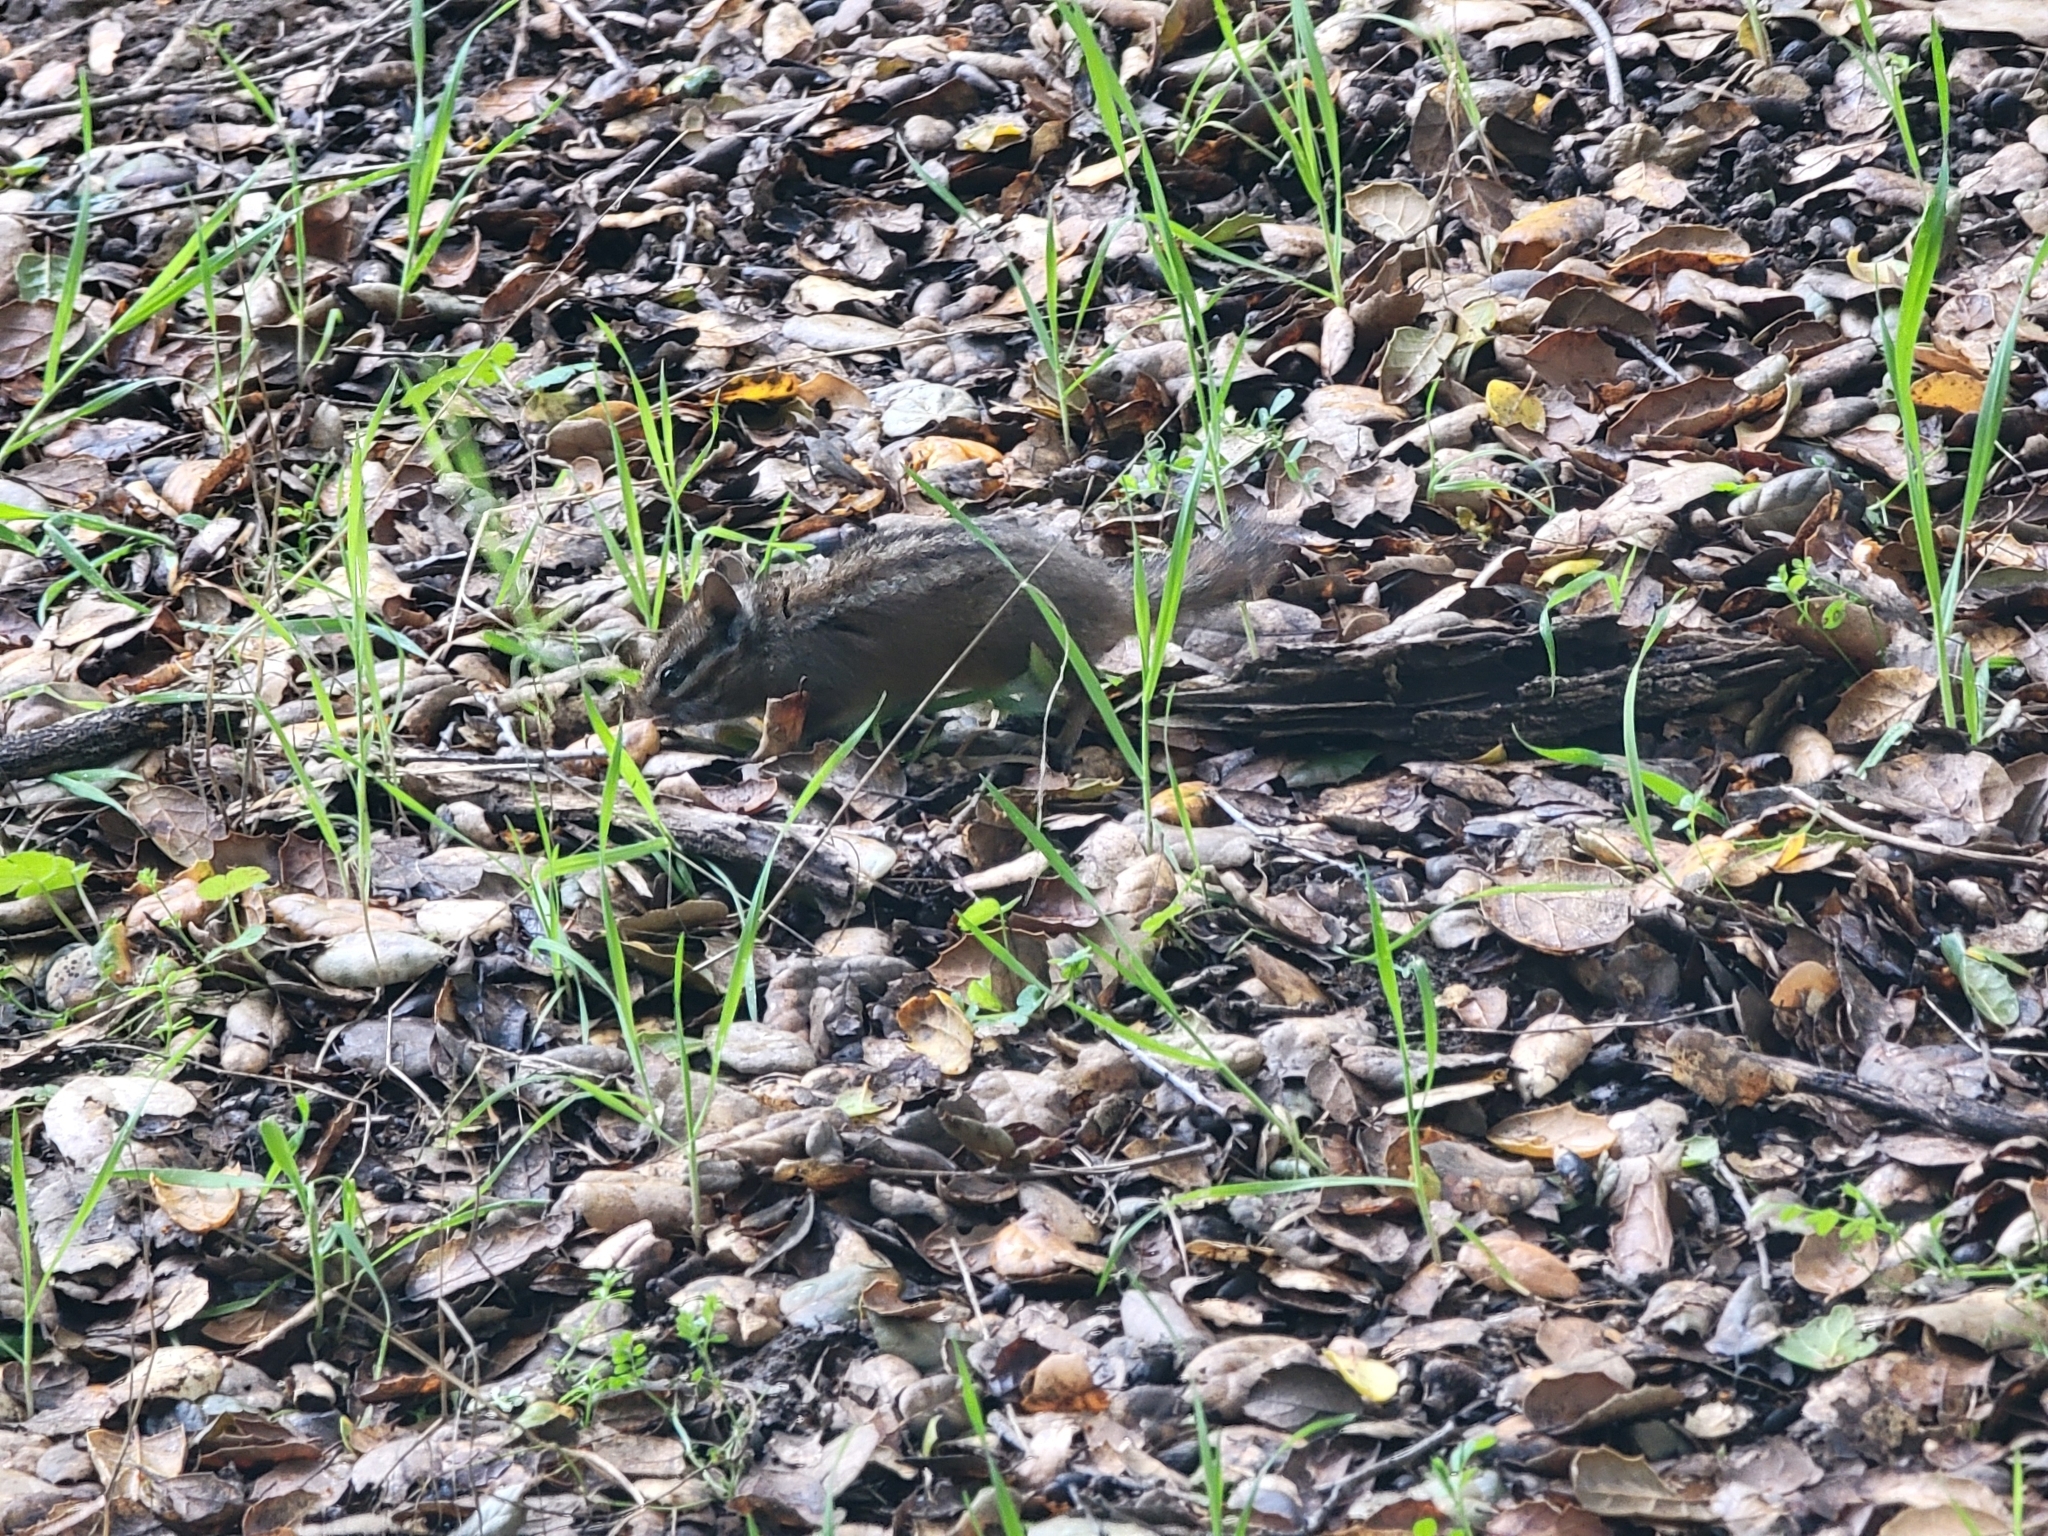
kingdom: Animalia
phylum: Chordata
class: Mammalia
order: Rodentia
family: Sciuridae
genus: Tamias
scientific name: Tamias merriami
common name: Merriam's chipmunk
